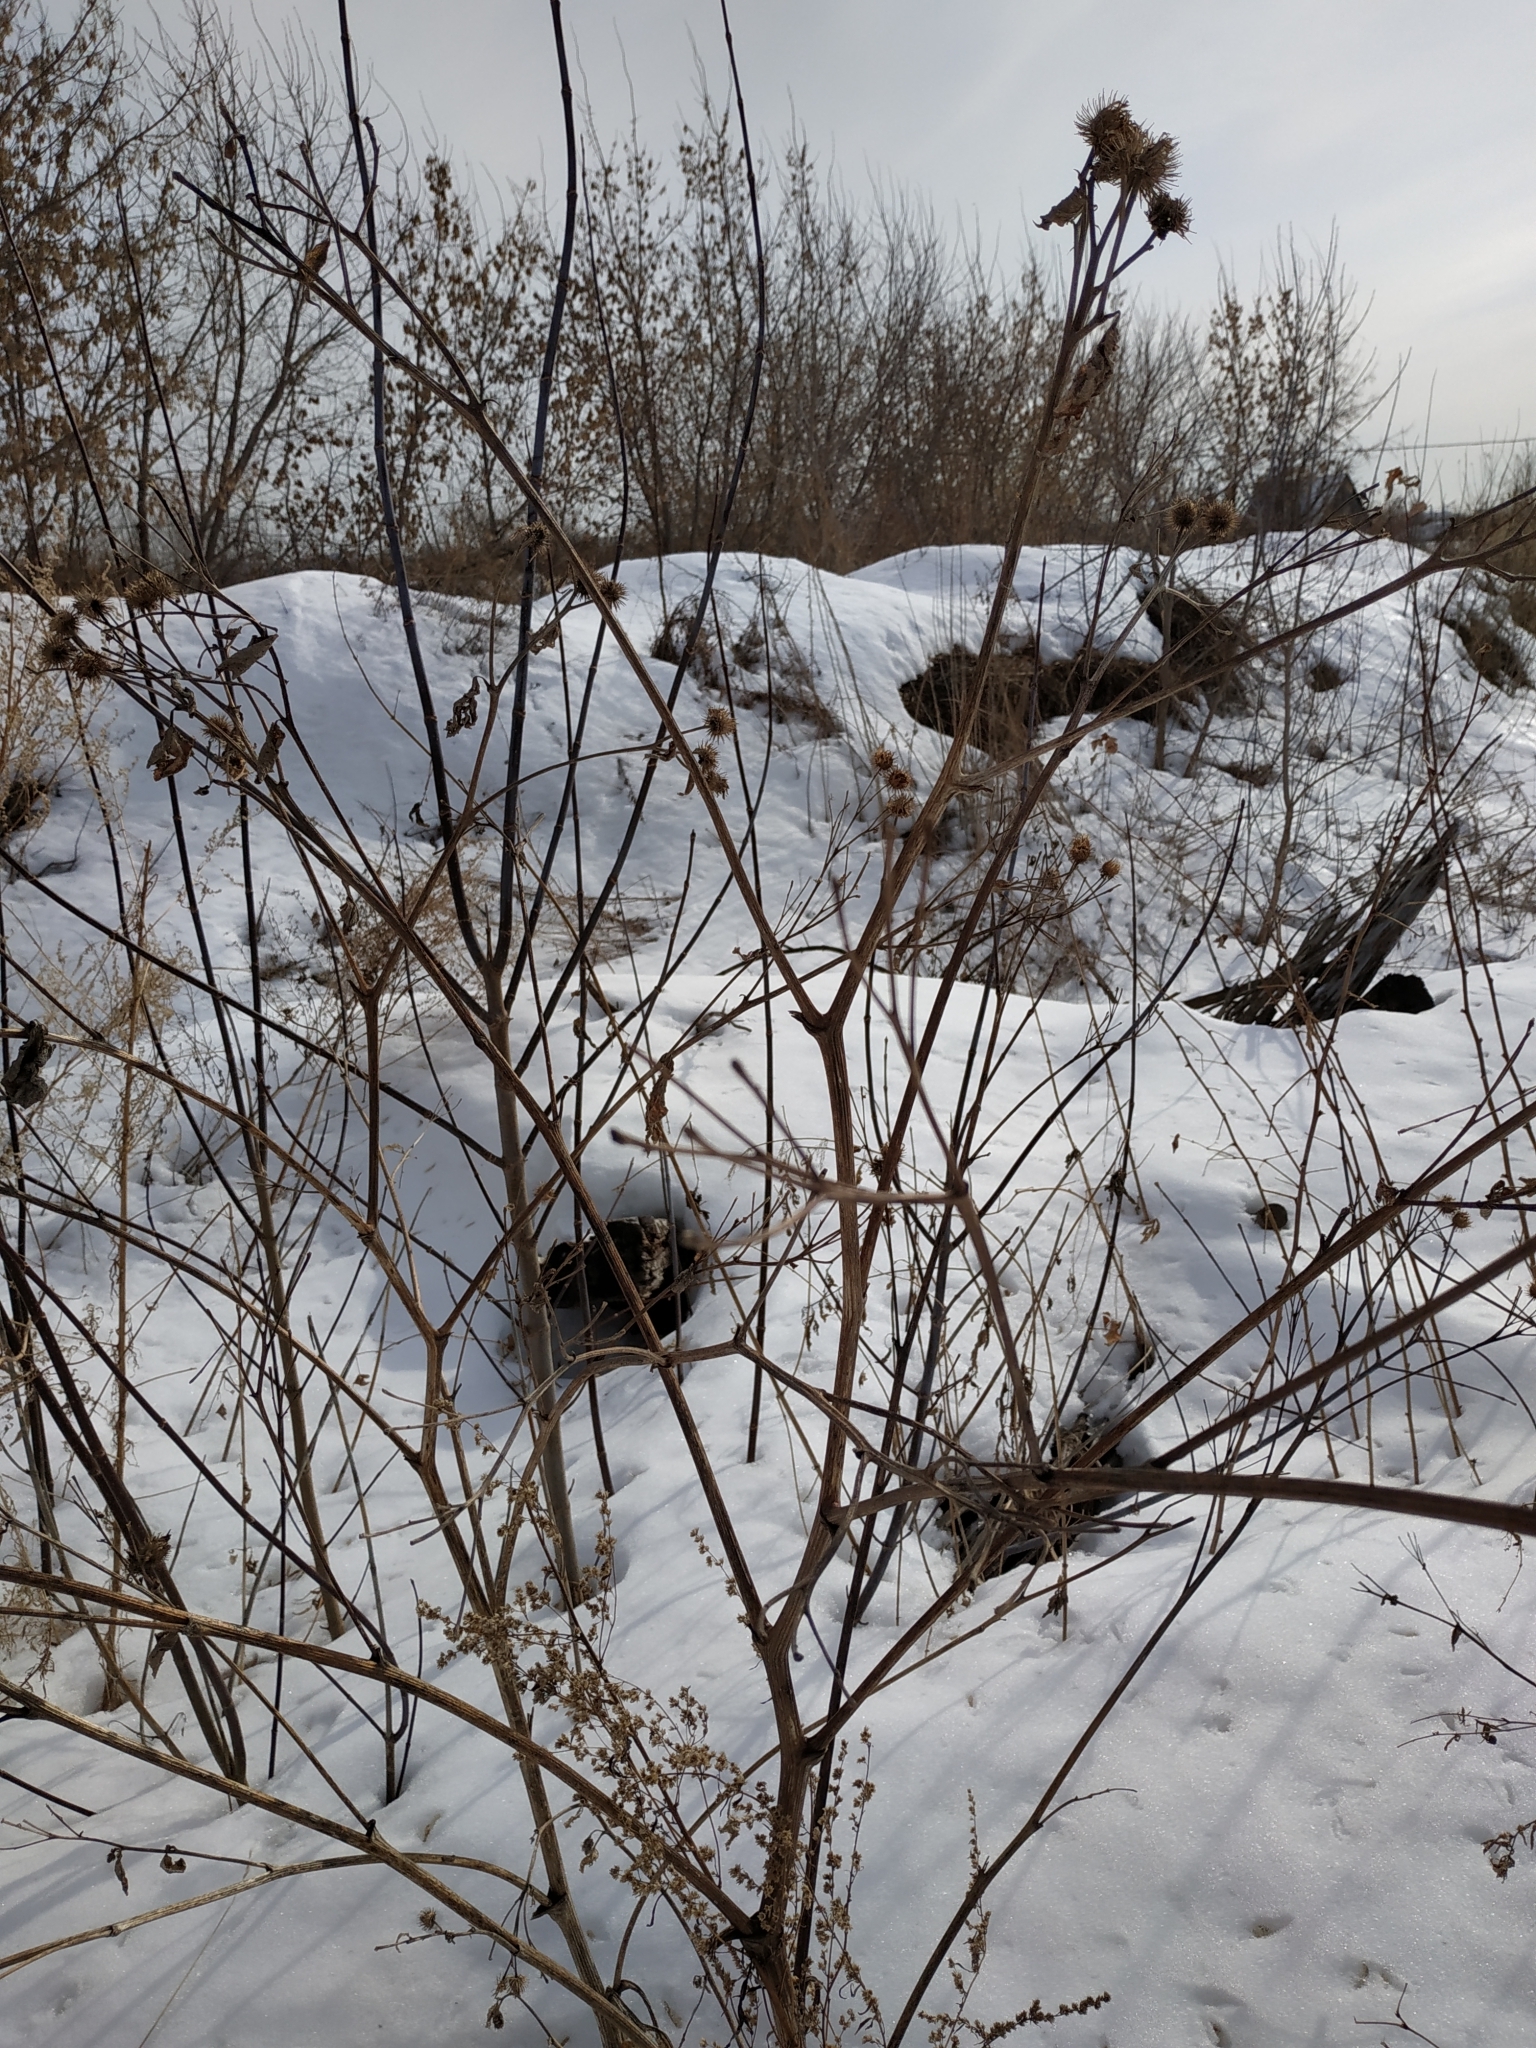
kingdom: Plantae
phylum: Tracheophyta
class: Magnoliopsida
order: Asterales
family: Asteraceae
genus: Arctium
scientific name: Arctium tomentosum
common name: Woolly burdock
